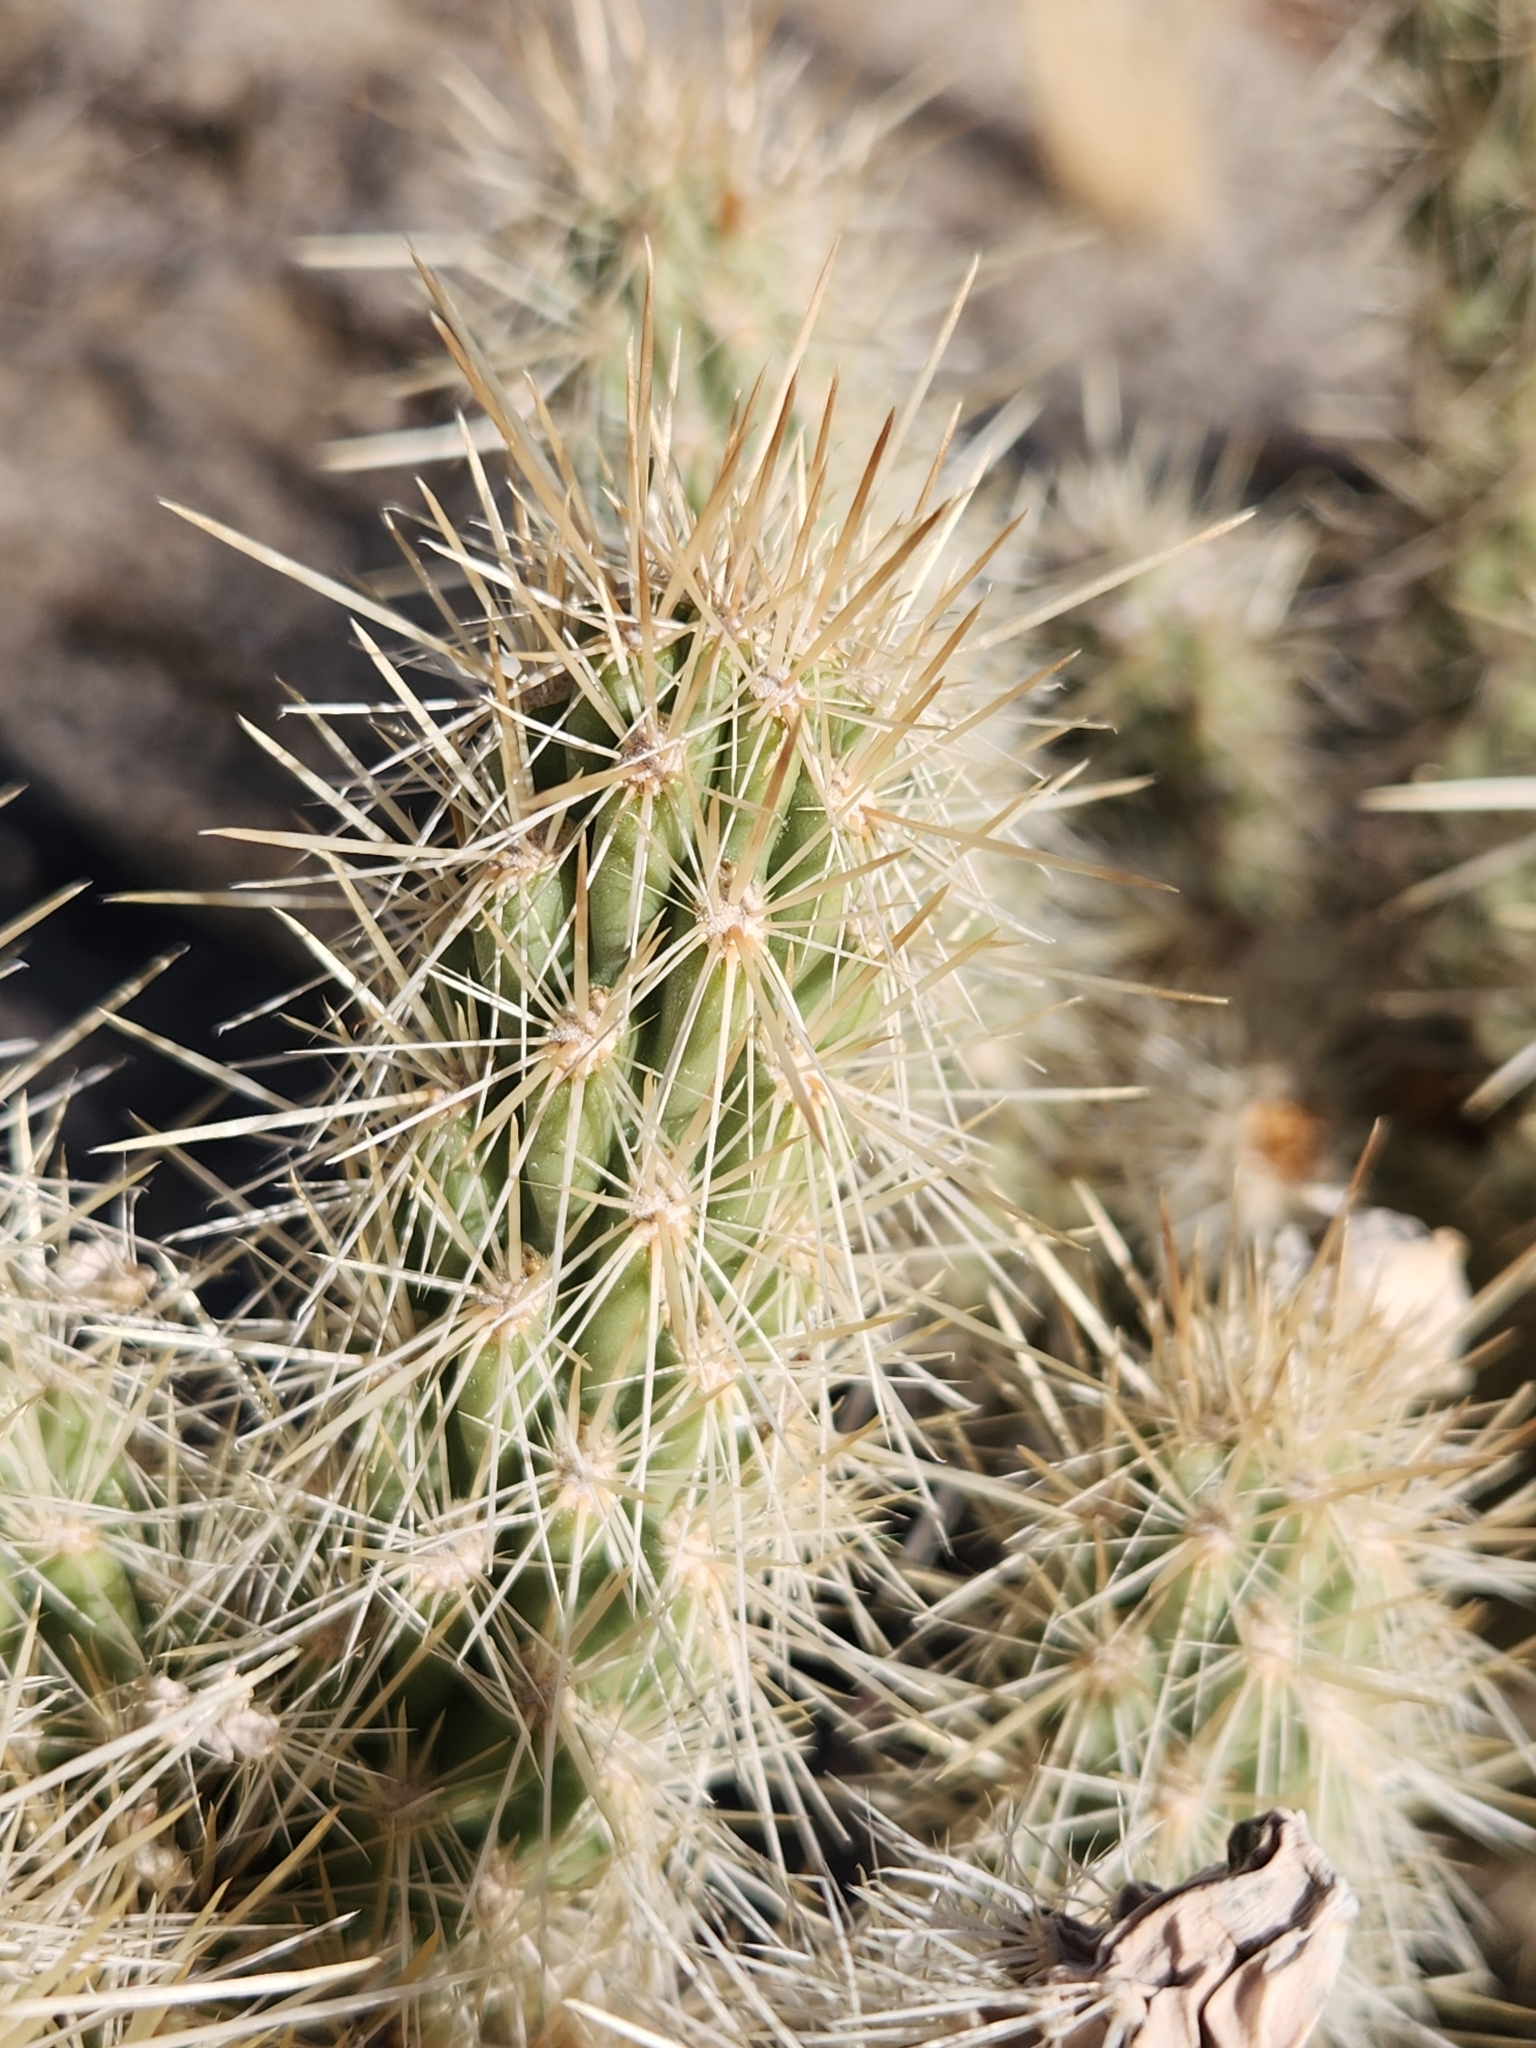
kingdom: Plantae
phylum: Tracheophyta
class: Magnoliopsida
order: Caryophyllales
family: Cactaceae
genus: Cylindropuntia
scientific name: Cylindropuntia ganderi
